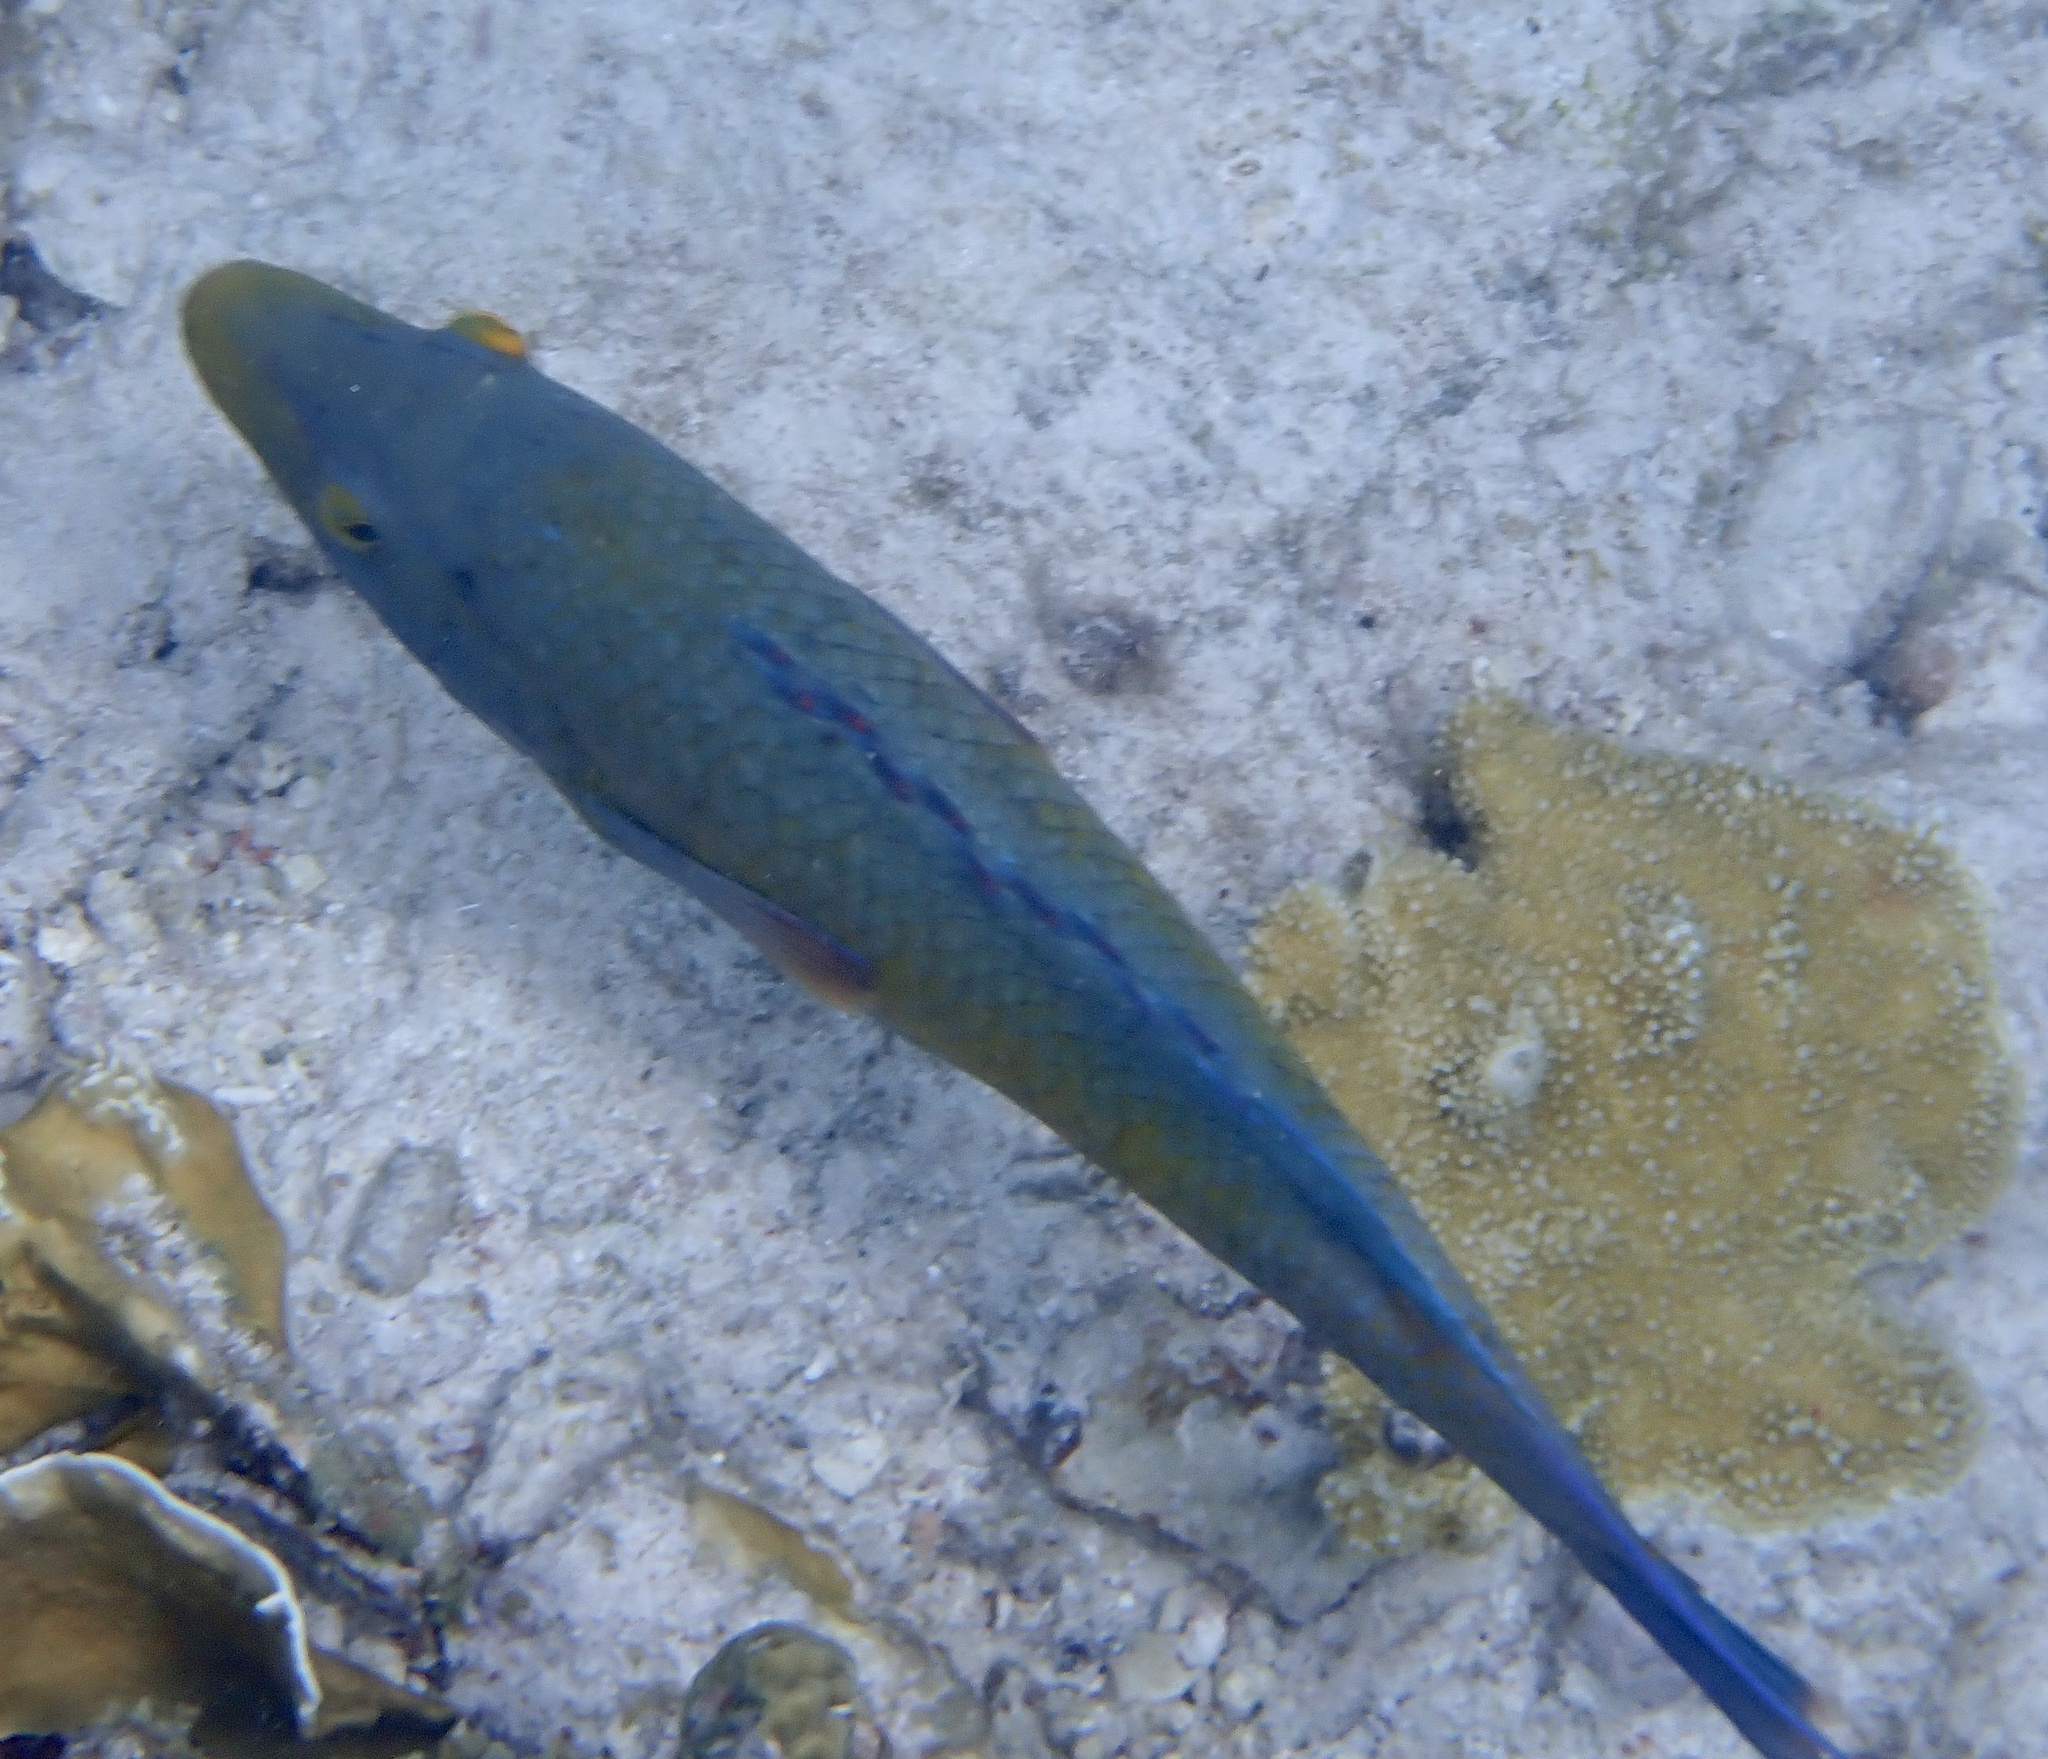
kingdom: Animalia
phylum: Chordata
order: Perciformes
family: Labridae
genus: Bodianus
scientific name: Bodianus rufus
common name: Spanish hogfish
